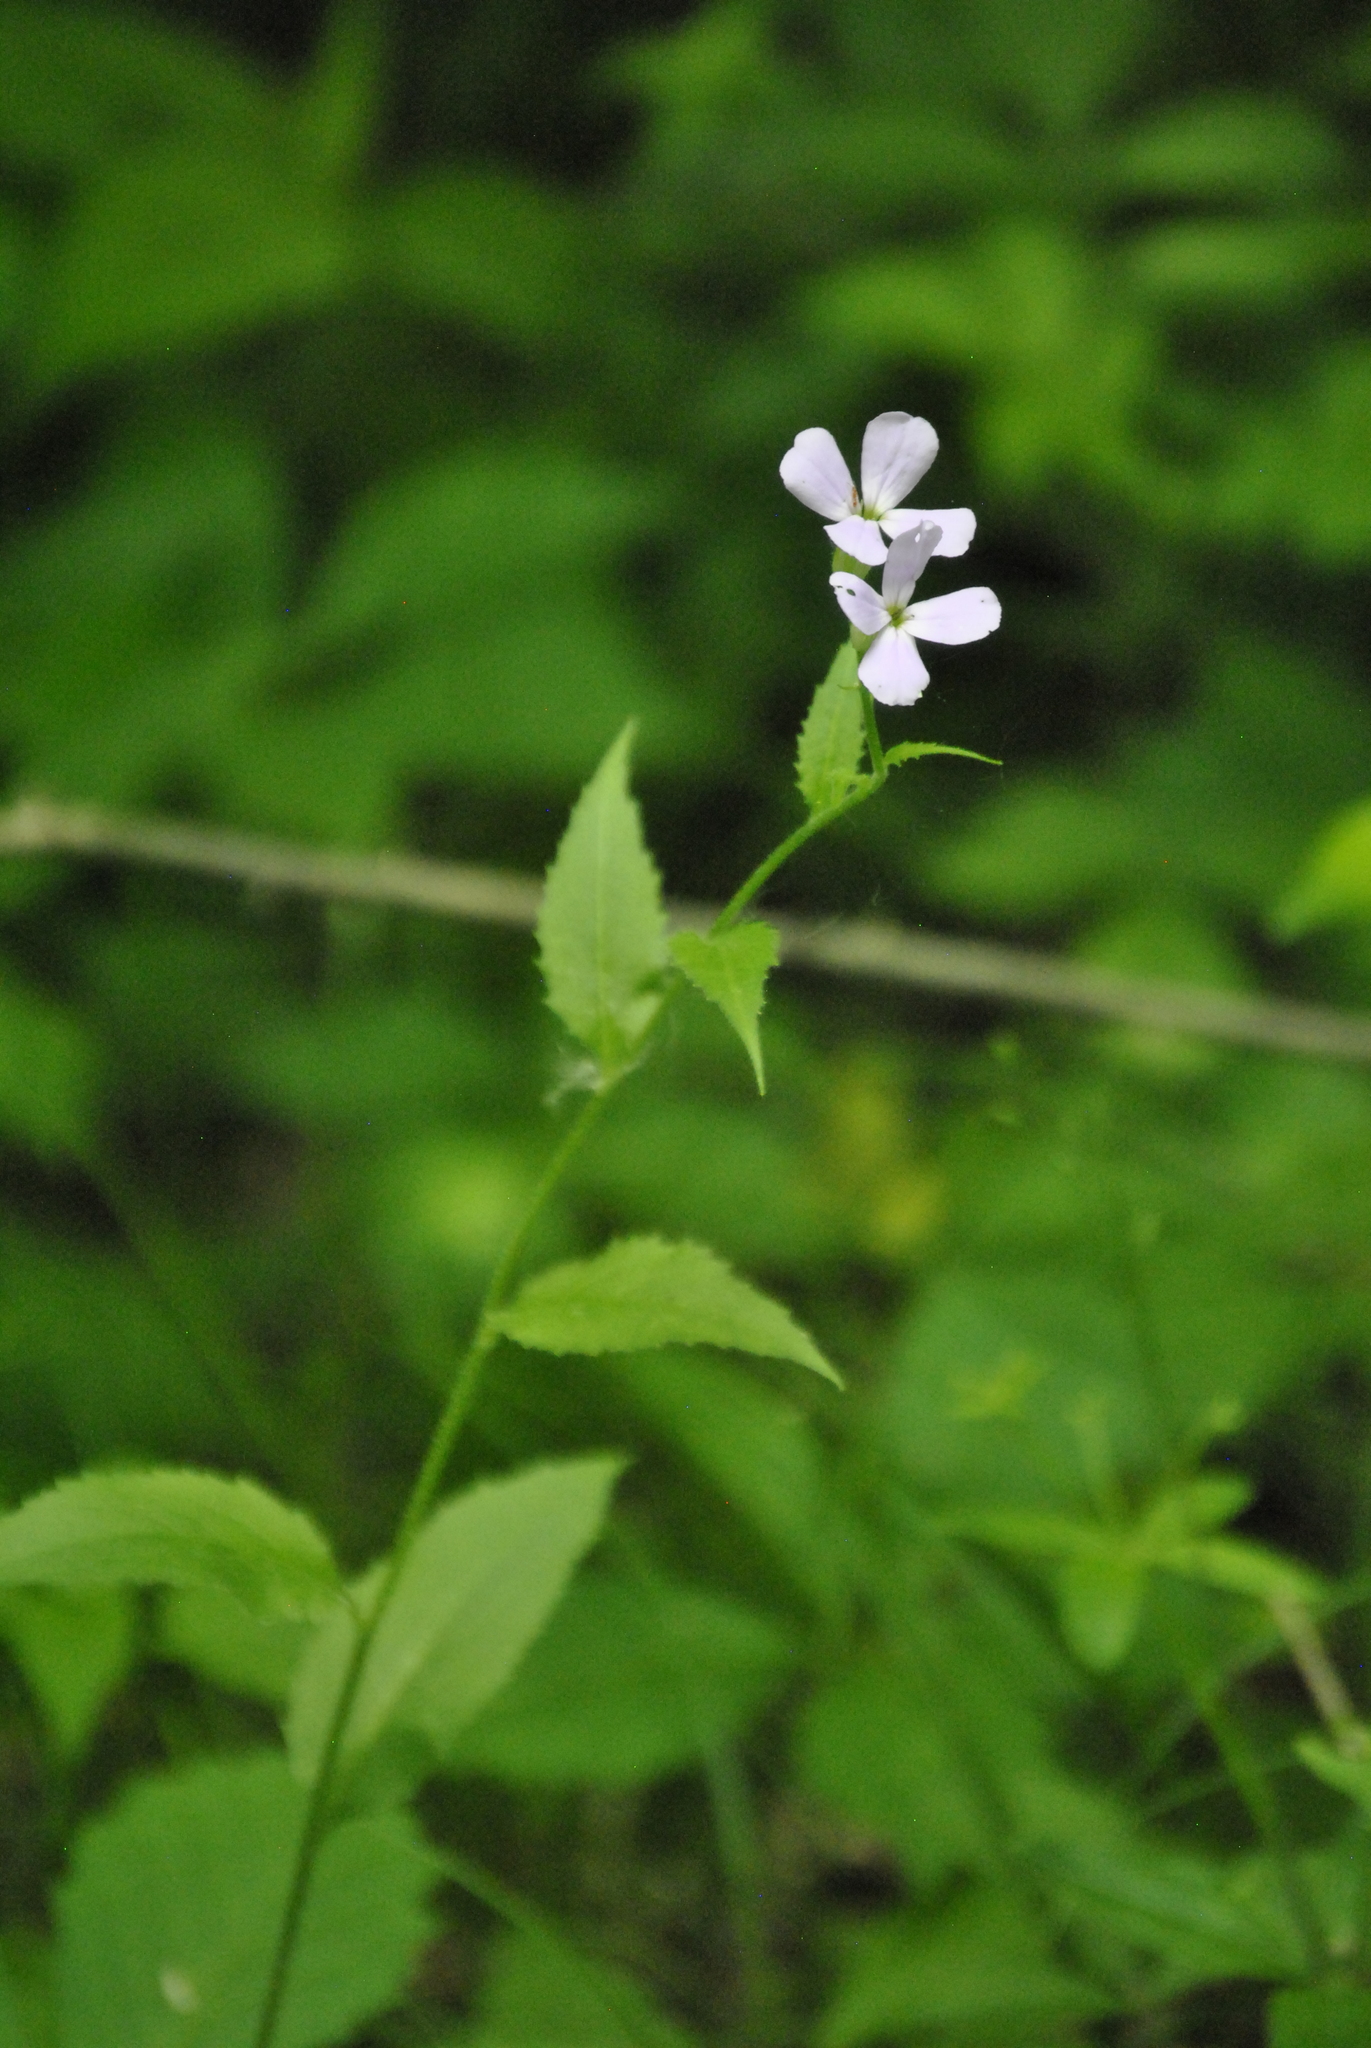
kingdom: Plantae
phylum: Tracheophyta
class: Magnoliopsida
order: Brassicales
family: Brassicaceae
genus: Hesperis
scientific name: Hesperis matronalis
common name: Dame's-violet
